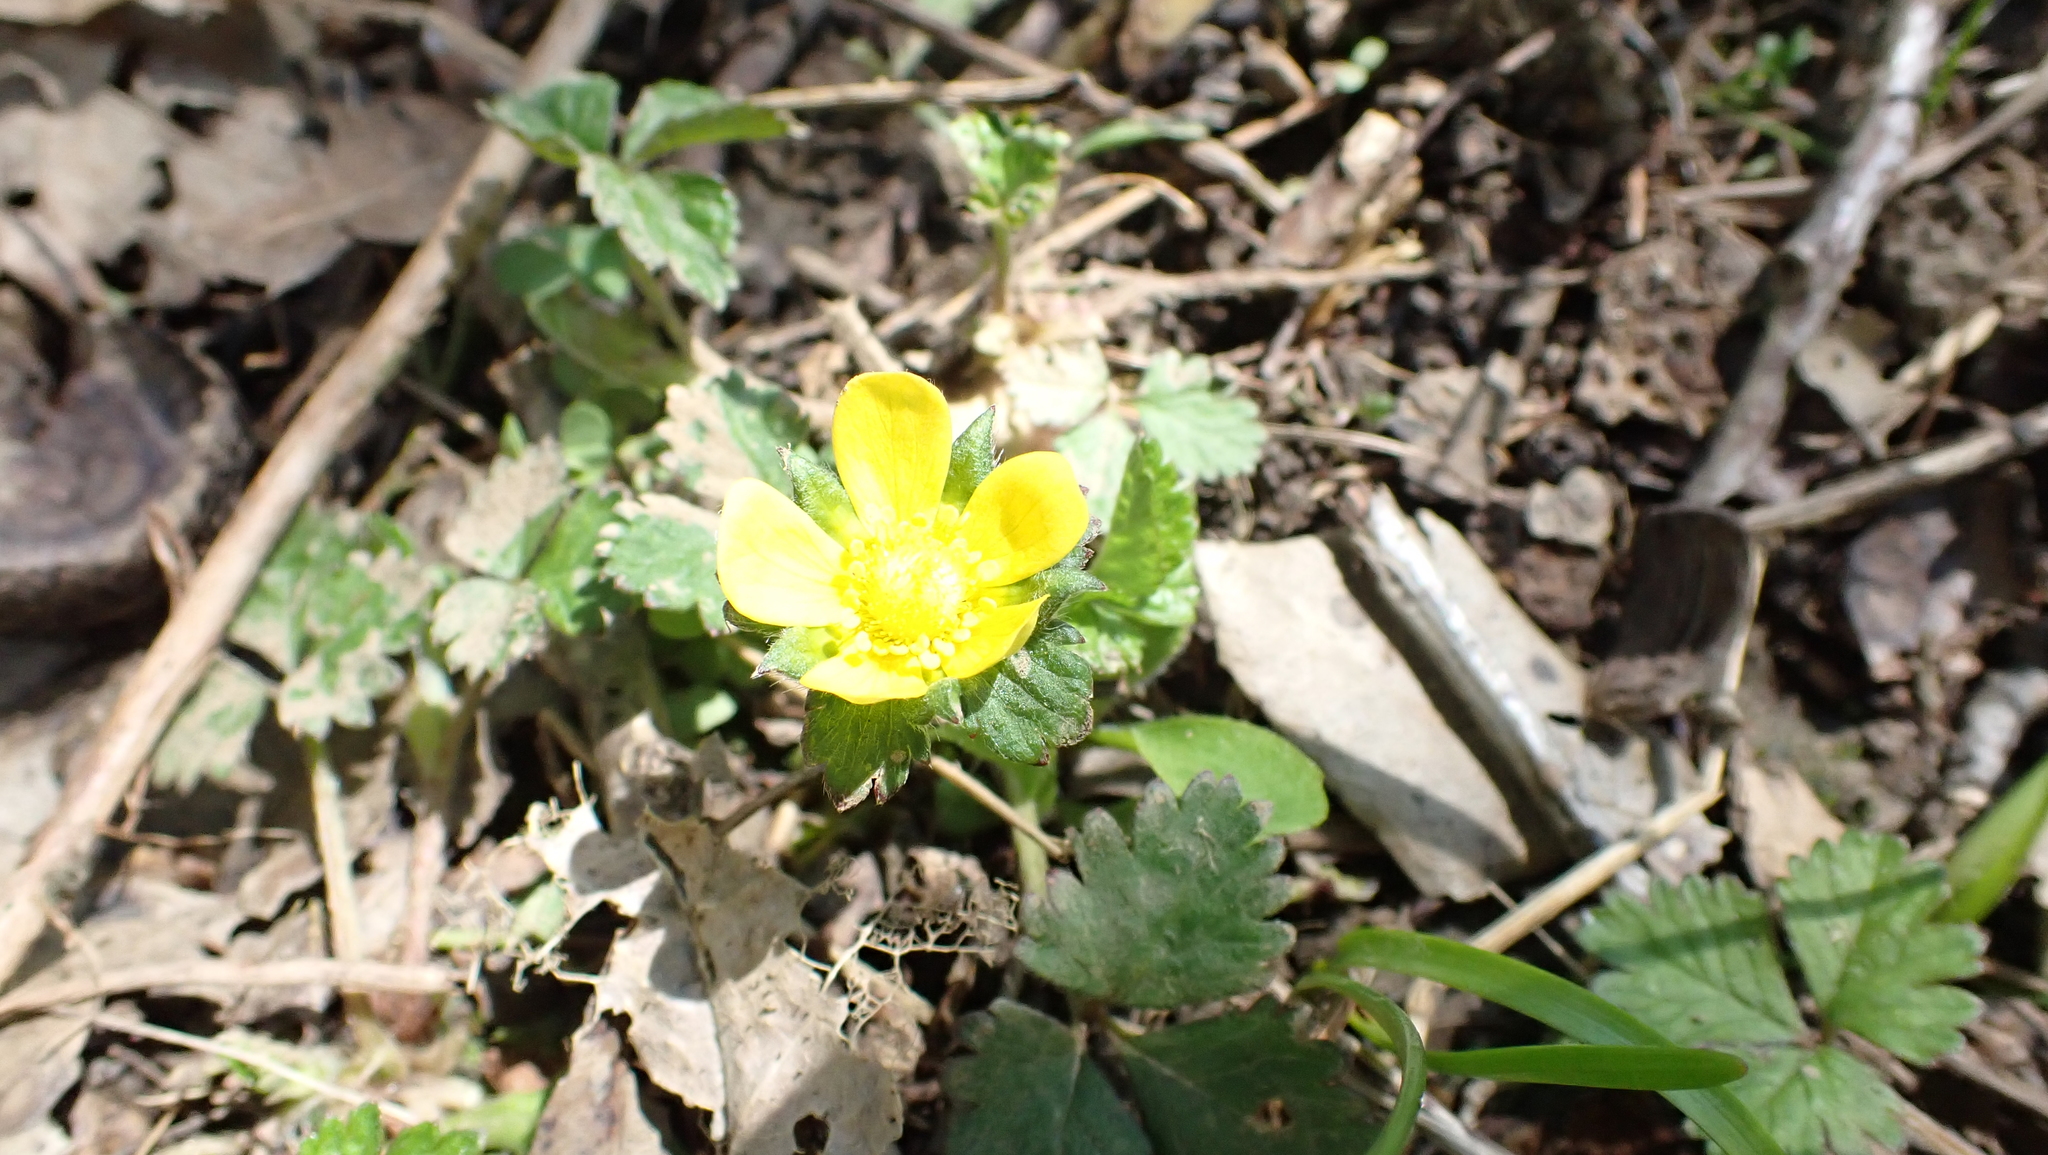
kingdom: Plantae
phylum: Tracheophyta
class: Magnoliopsida
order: Rosales
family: Rosaceae
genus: Potentilla
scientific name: Potentilla indica
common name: Yellow-flowered strawberry
